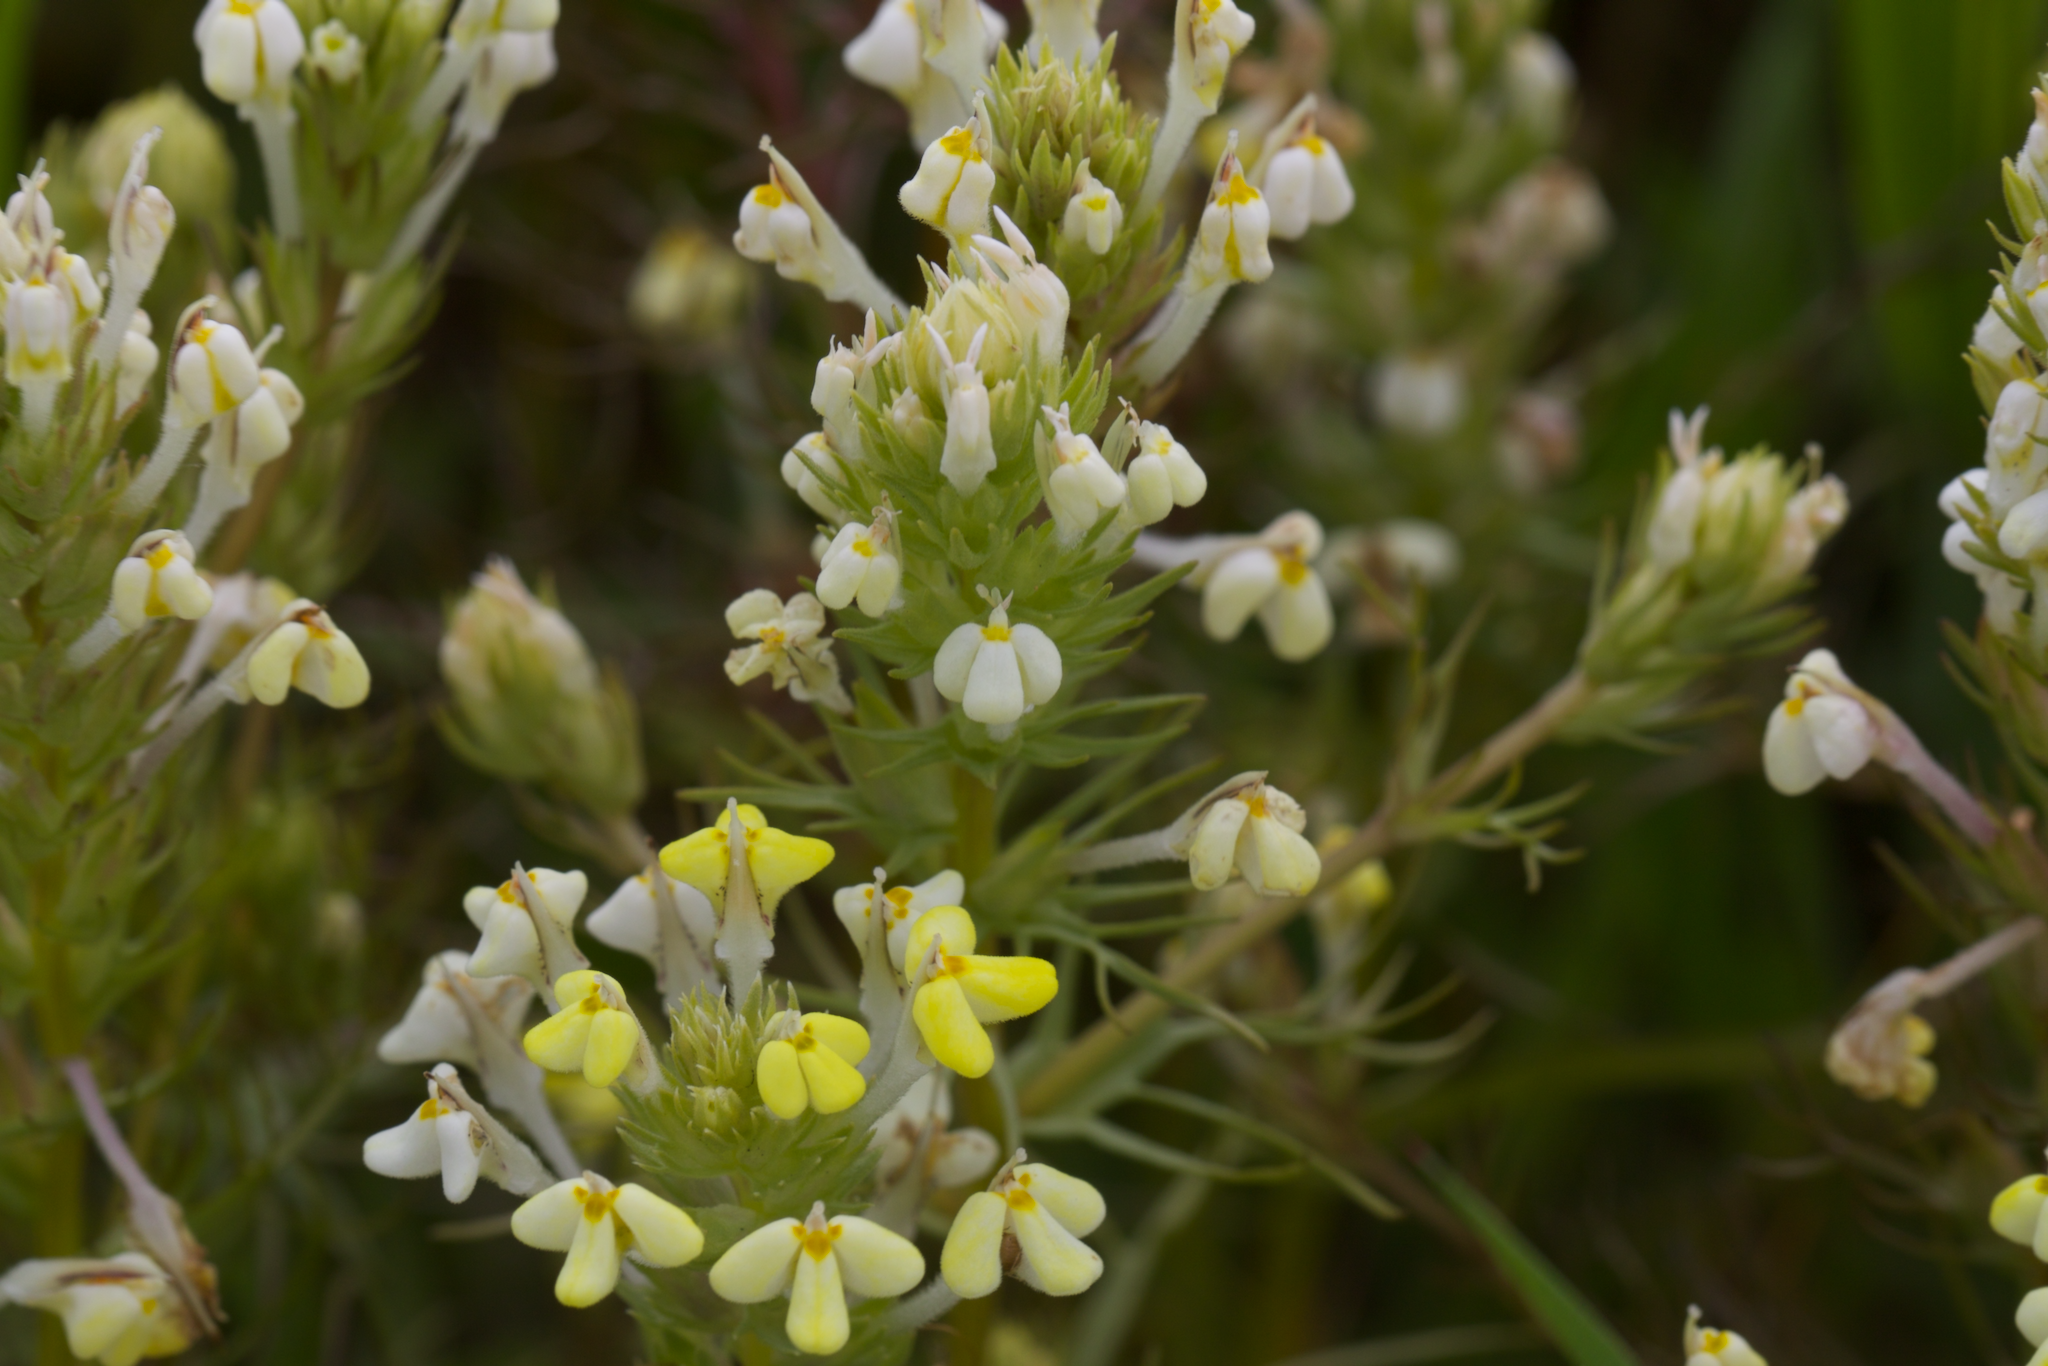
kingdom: Plantae
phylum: Tracheophyta
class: Magnoliopsida
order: Lamiales
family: Orobanchaceae
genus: Triphysaria
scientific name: Triphysaria versicolor
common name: Bearded false owl-clover
